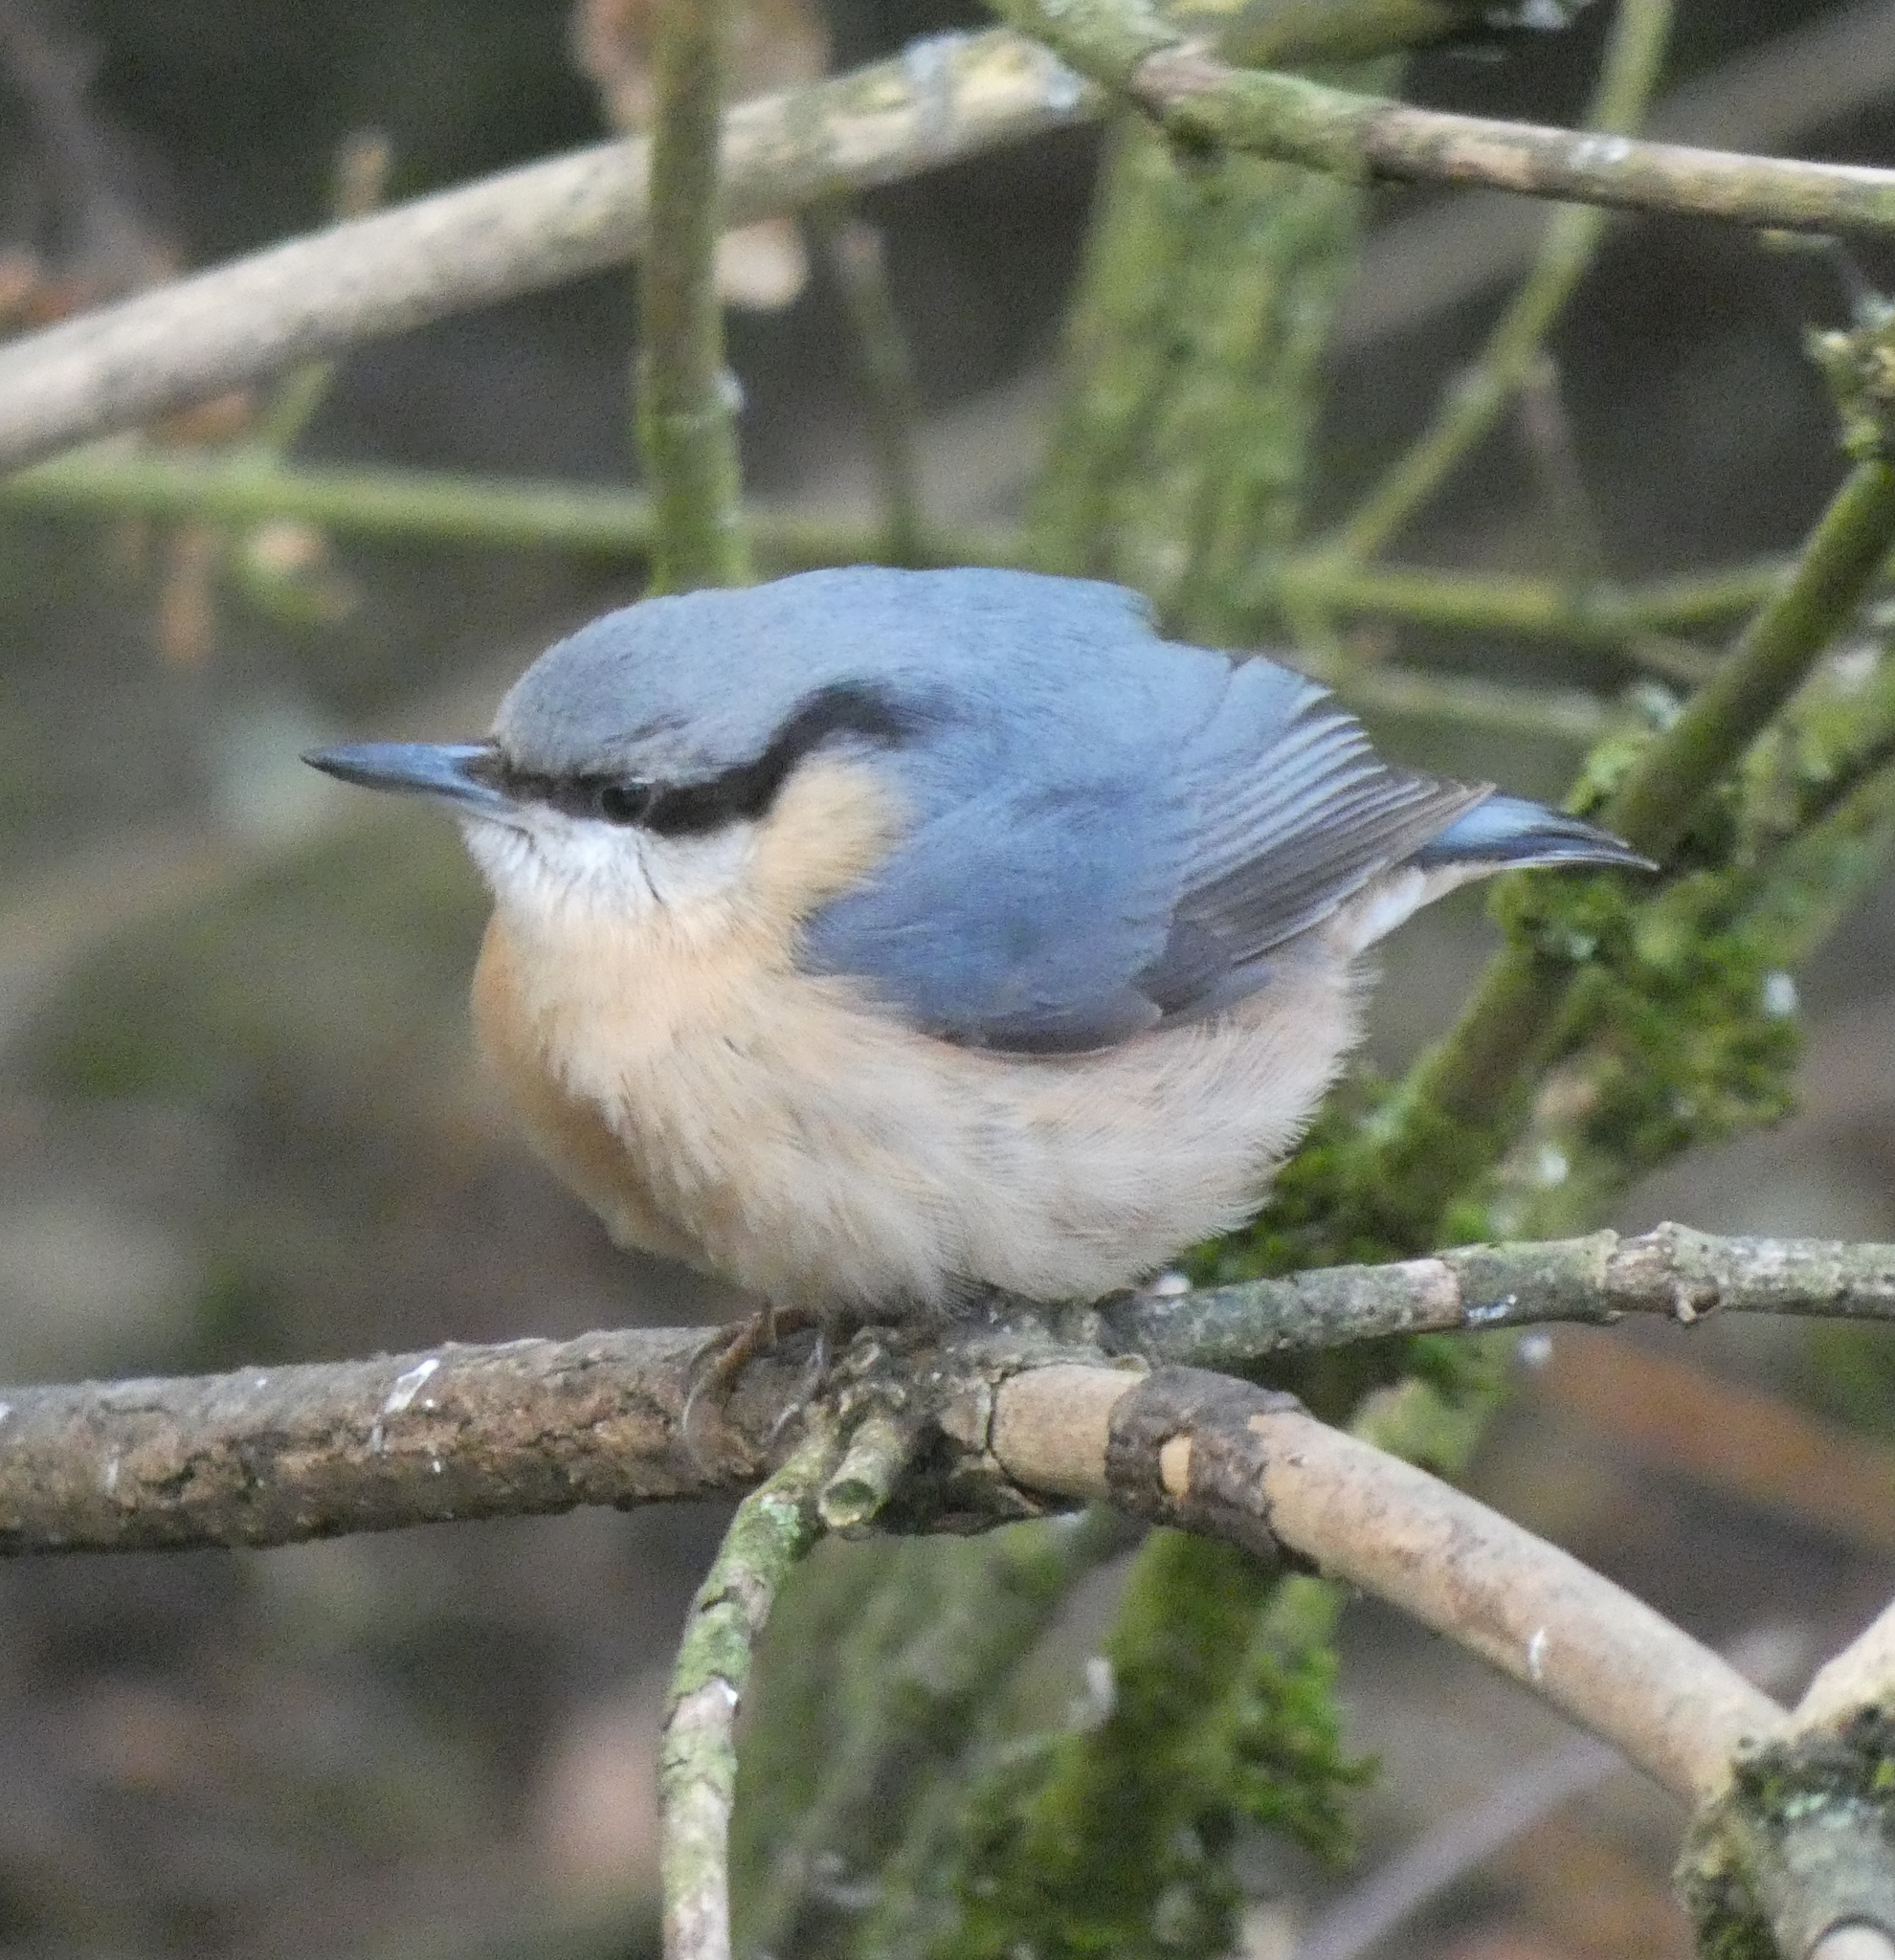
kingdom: Animalia
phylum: Chordata
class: Aves
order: Passeriformes
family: Sittidae
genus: Sitta
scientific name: Sitta europaea
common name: Eurasian nuthatch
